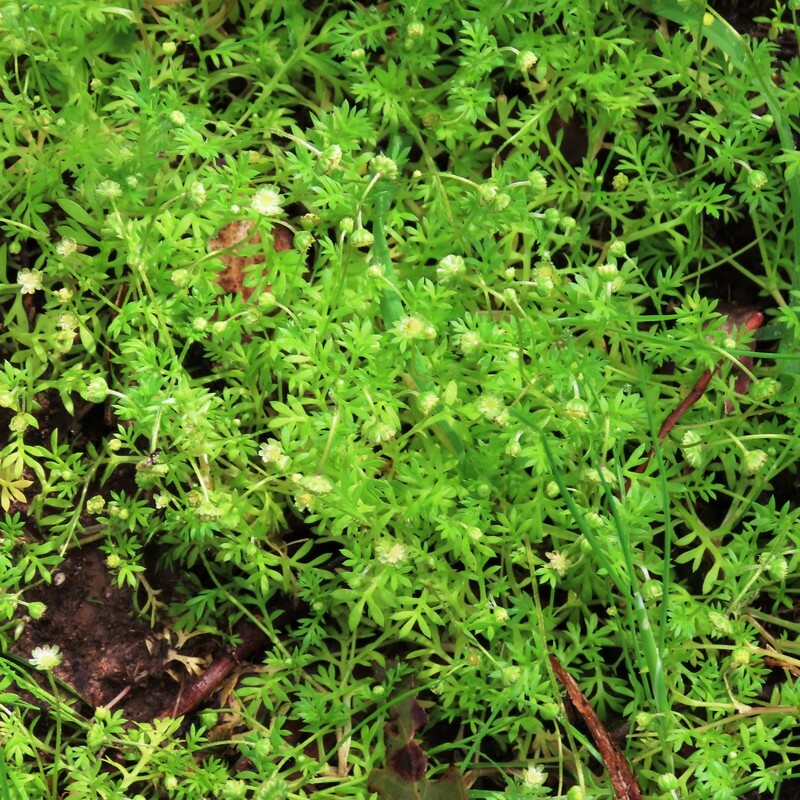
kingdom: Plantae
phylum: Tracheophyta
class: Magnoliopsida
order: Asterales
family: Asteraceae
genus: Cotula
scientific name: Cotula australis
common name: Australian waterbuttons
